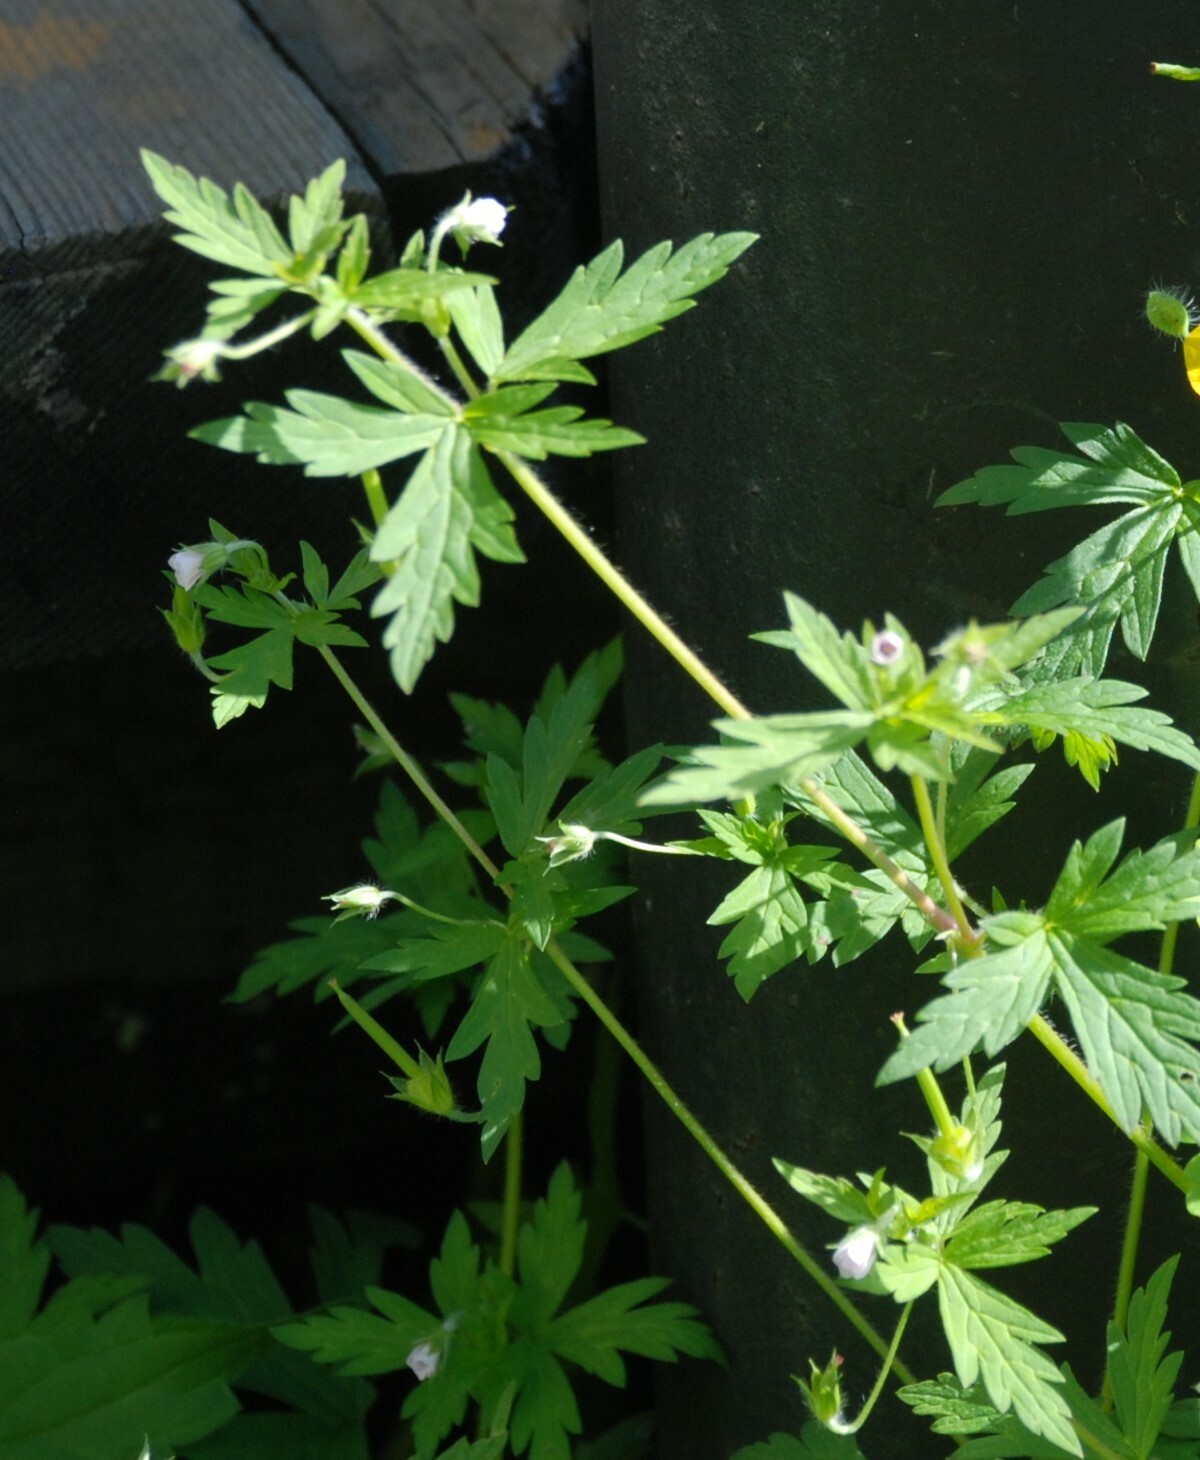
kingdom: Plantae
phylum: Tracheophyta
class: Magnoliopsida
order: Geraniales
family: Geraniaceae
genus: Geranium
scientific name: Geranium sibiricum
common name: Siberian crane's-bill
